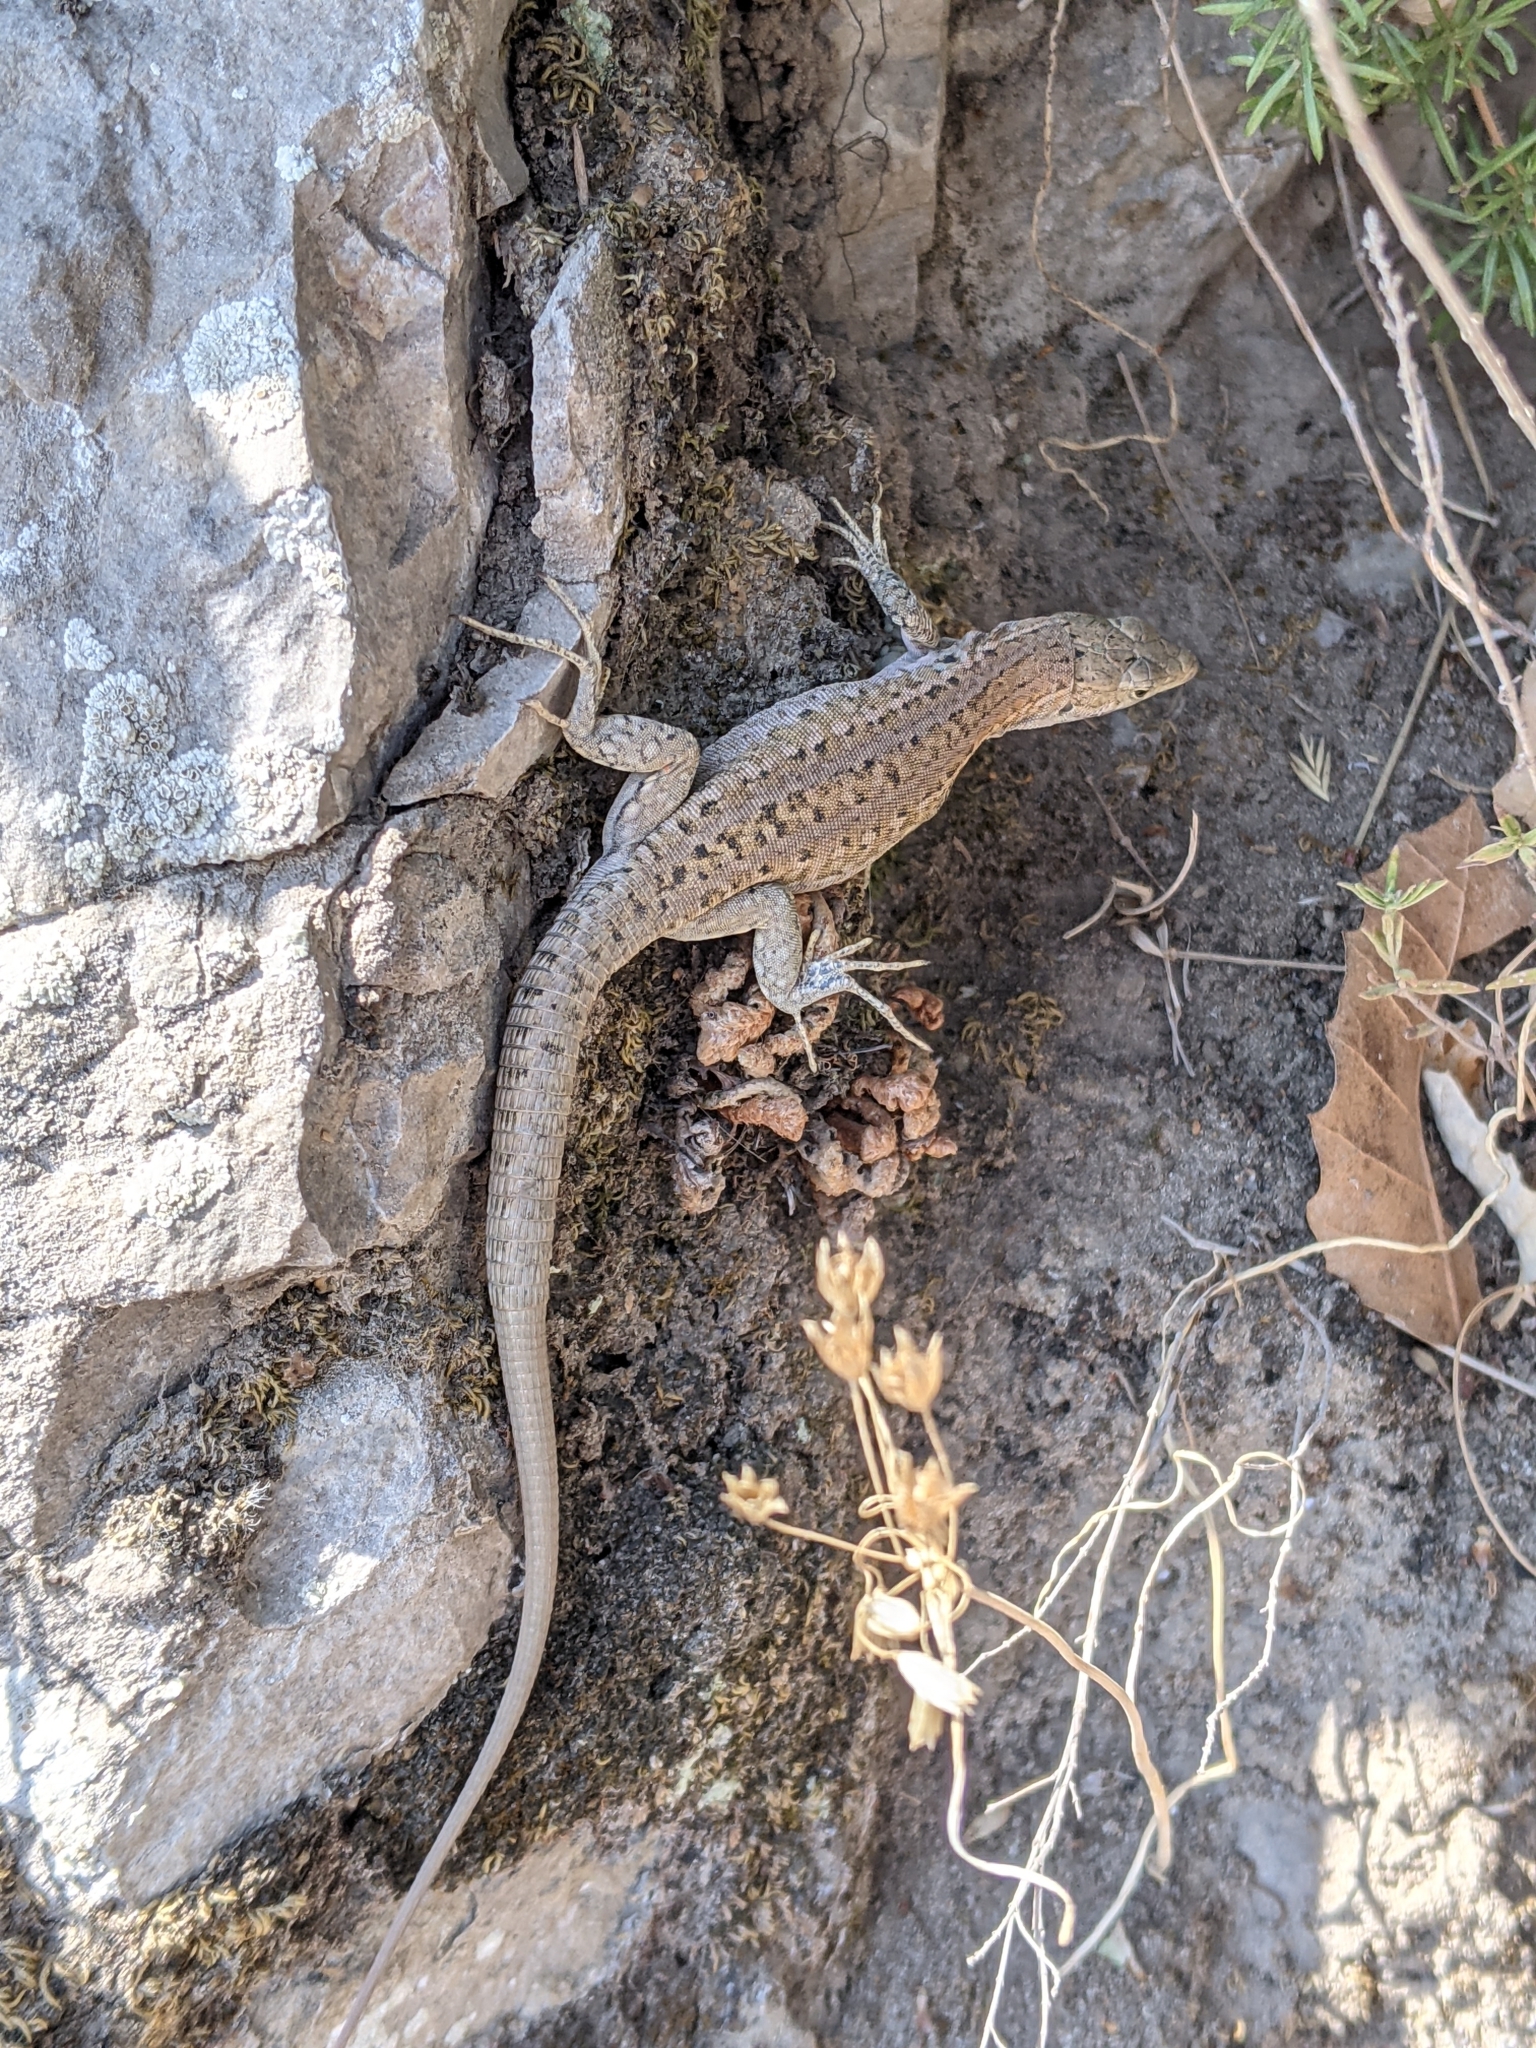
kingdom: Animalia
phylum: Chordata
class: Squamata
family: Lacertidae
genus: Podarcis
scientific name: Podarcis siculus
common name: Italian wall lizard
